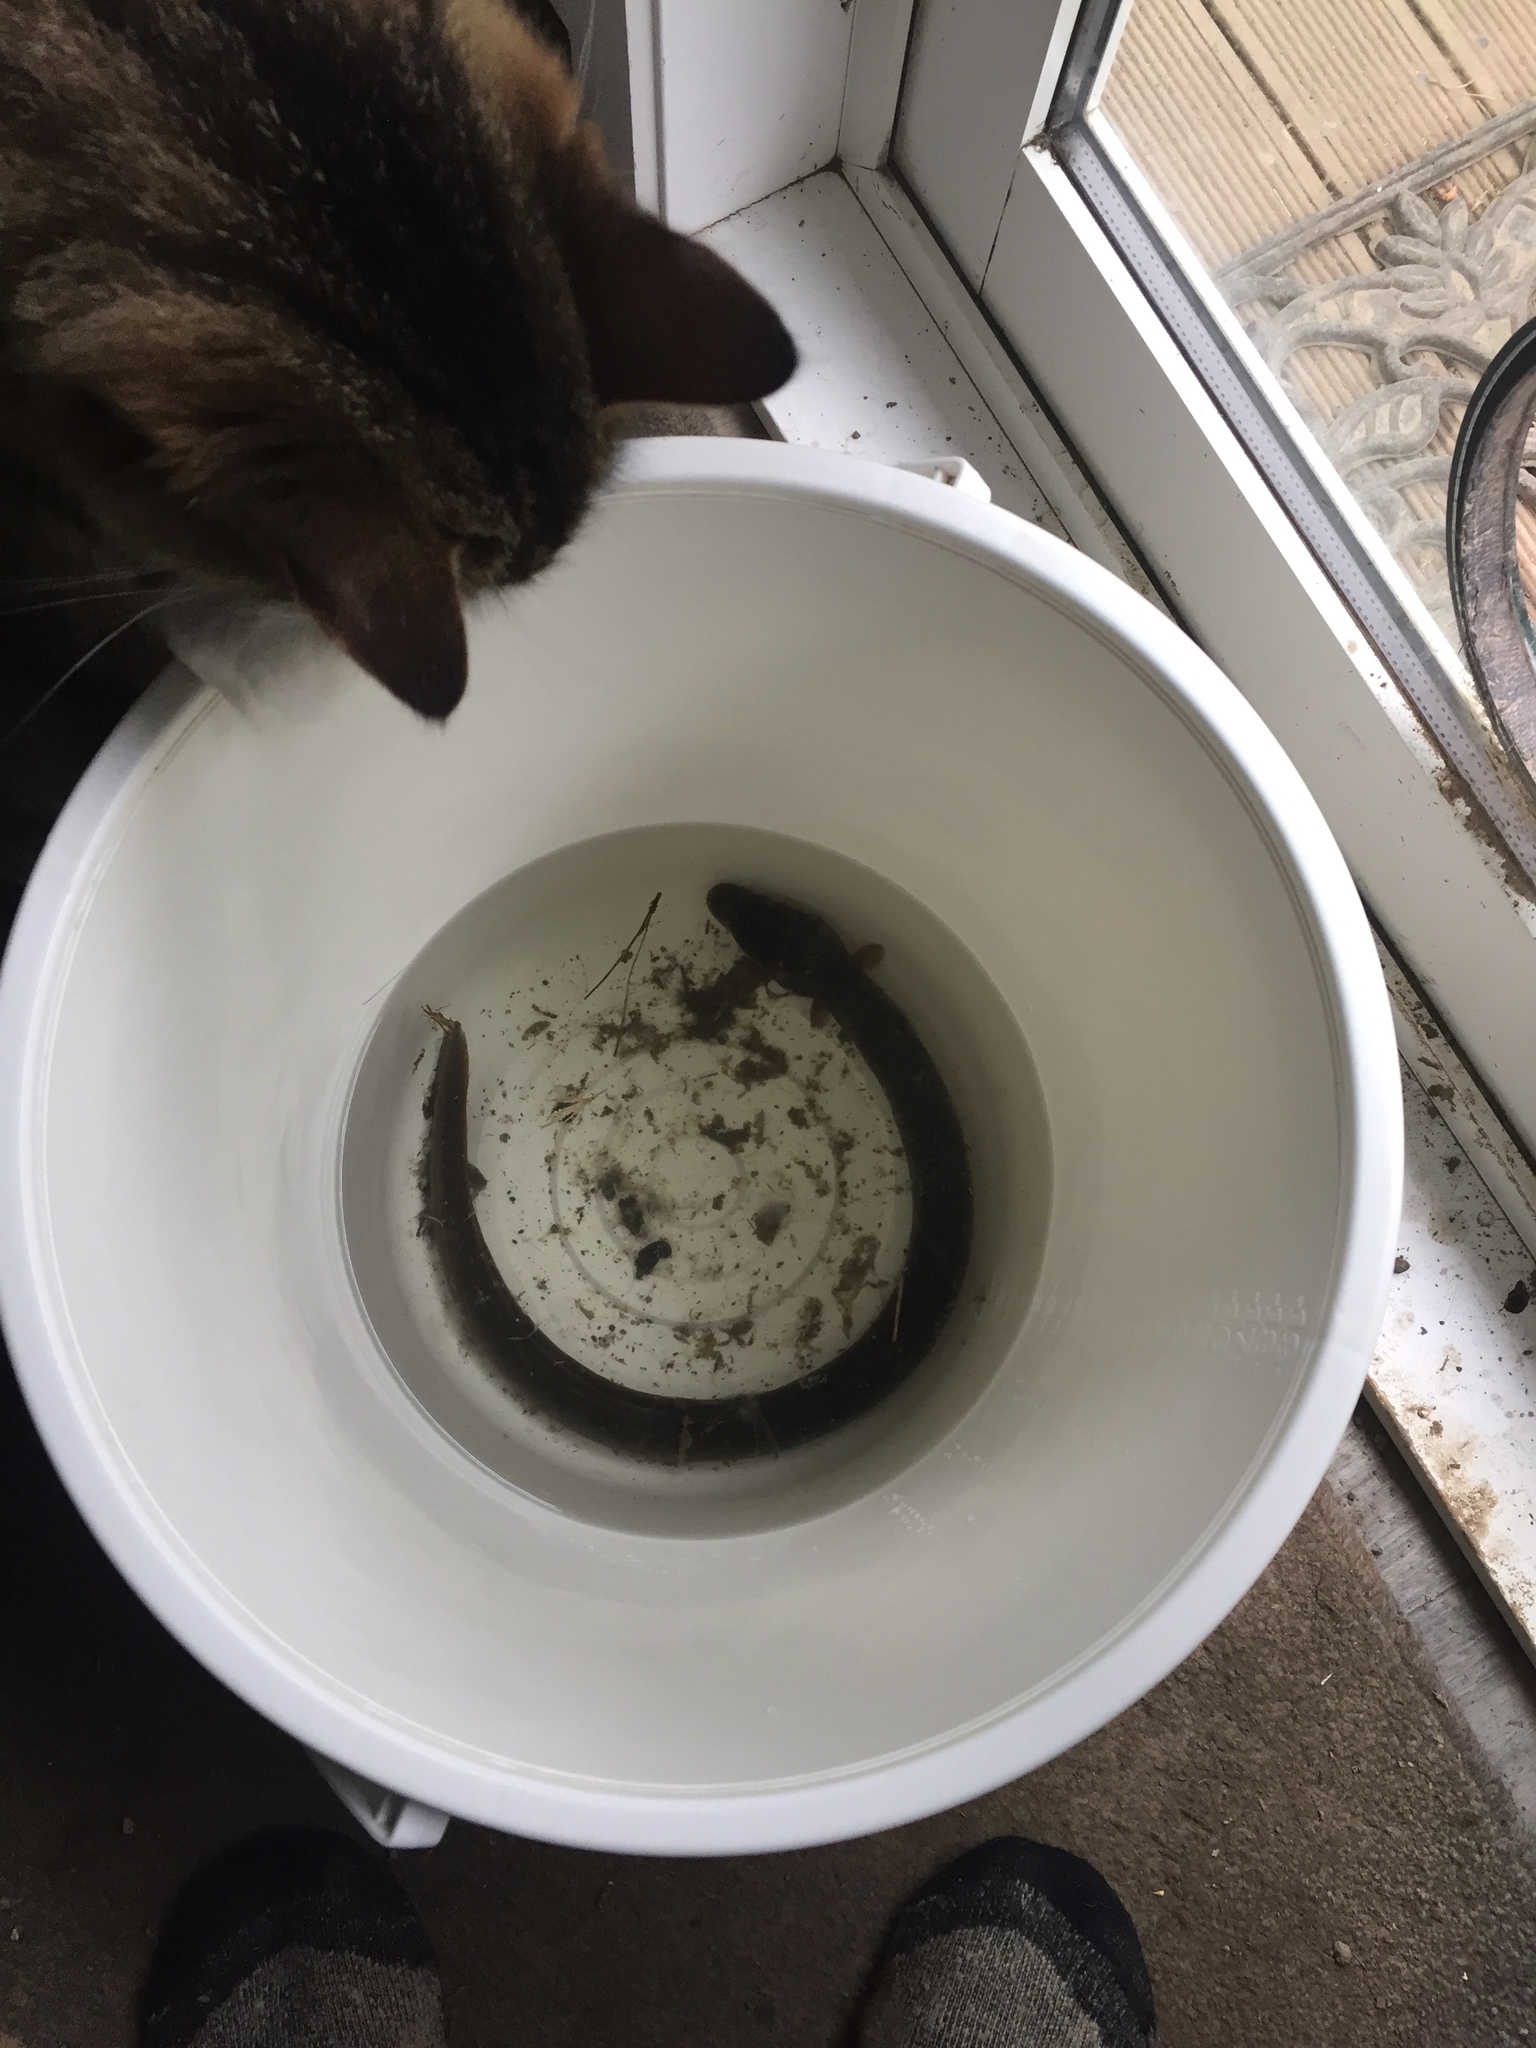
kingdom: Animalia
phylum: Chordata
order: Anguilliformes
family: Anguillidae
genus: Anguilla
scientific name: Anguilla australis
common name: Shortfin eel
